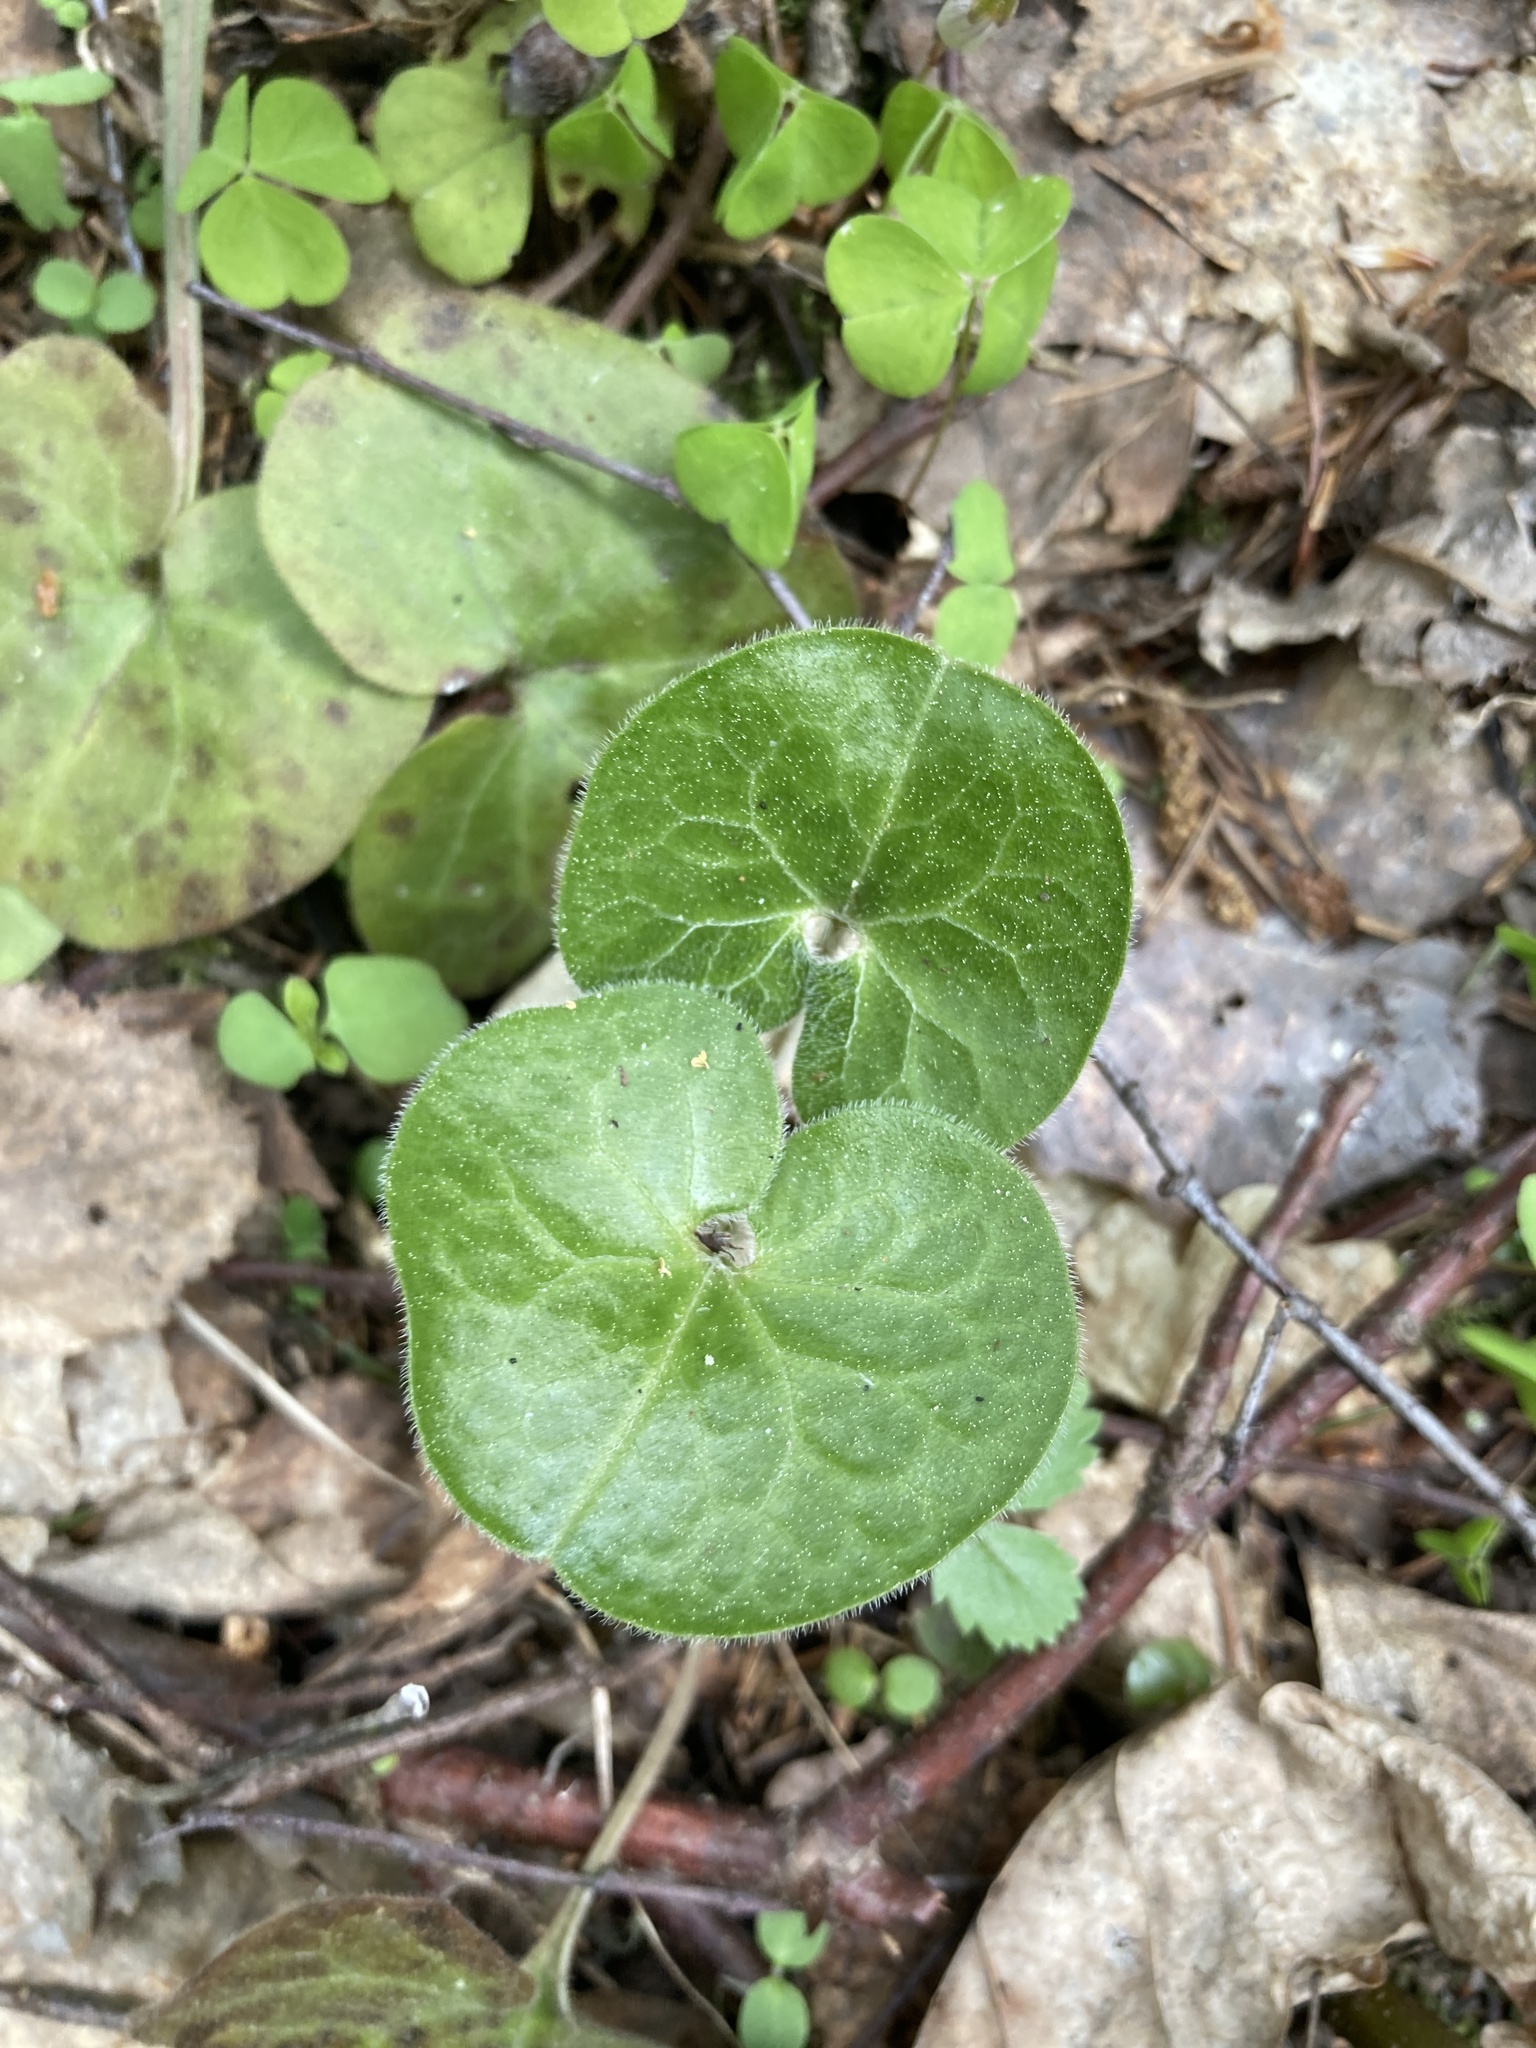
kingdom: Plantae
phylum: Tracheophyta
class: Magnoliopsida
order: Piperales
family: Aristolochiaceae
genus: Asarum
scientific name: Asarum europaeum
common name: Asarabacca
